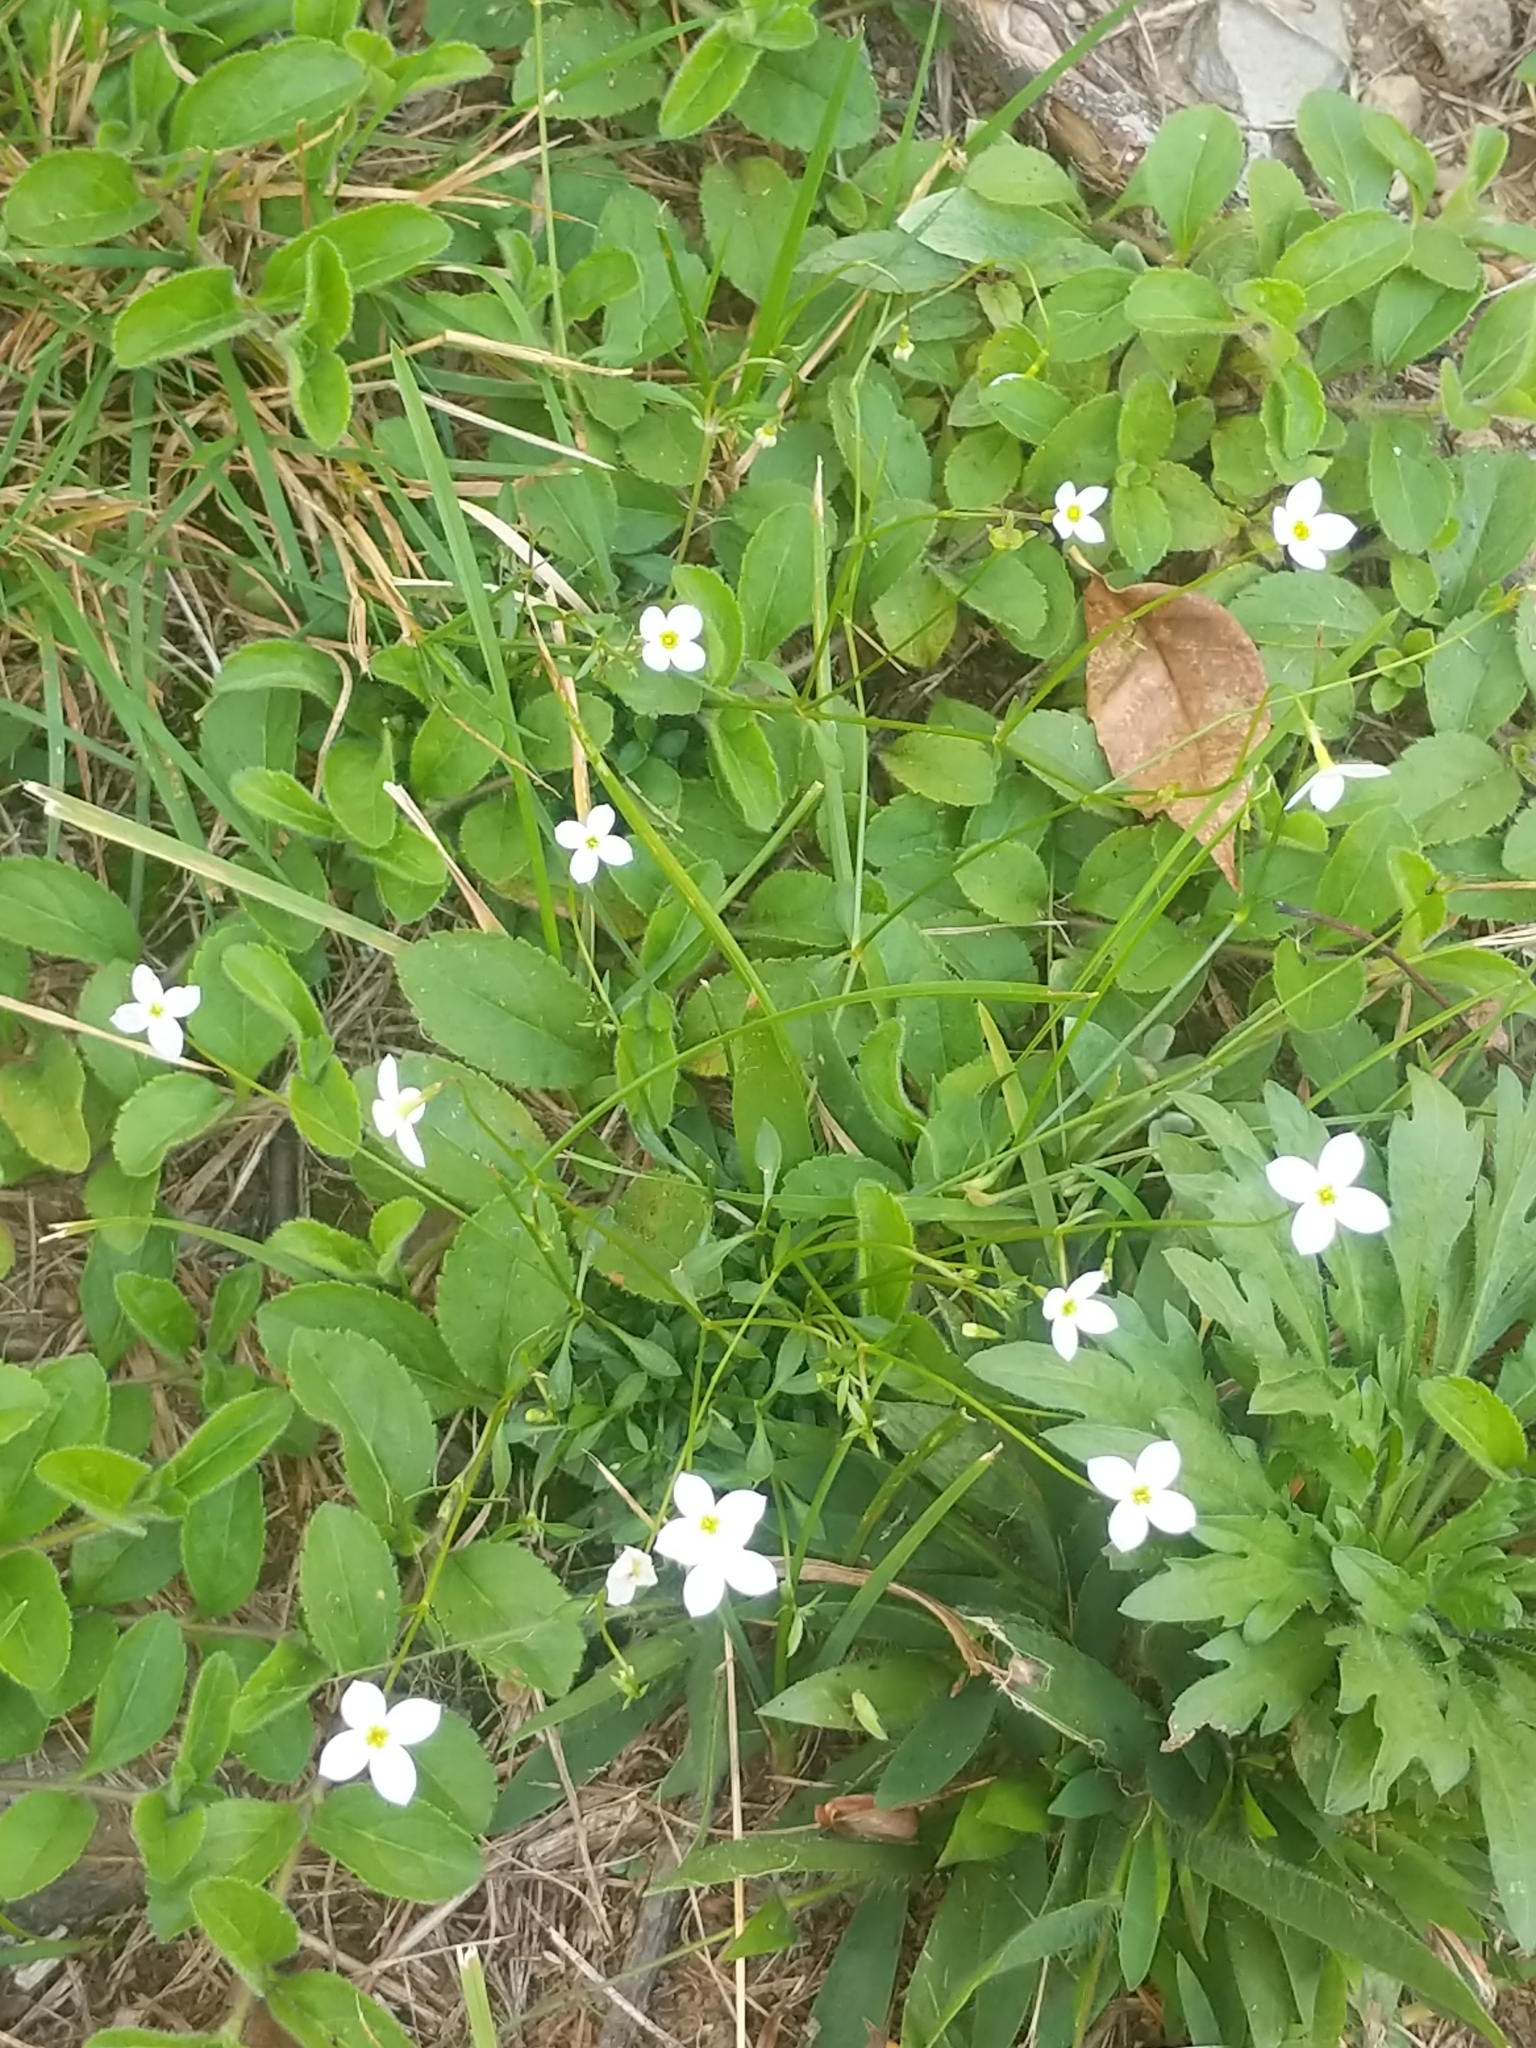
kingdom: Plantae
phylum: Tracheophyta
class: Magnoliopsida
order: Gentianales
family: Rubiaceae
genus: Houstonia
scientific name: Houstonia caerulea
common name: Bluets
